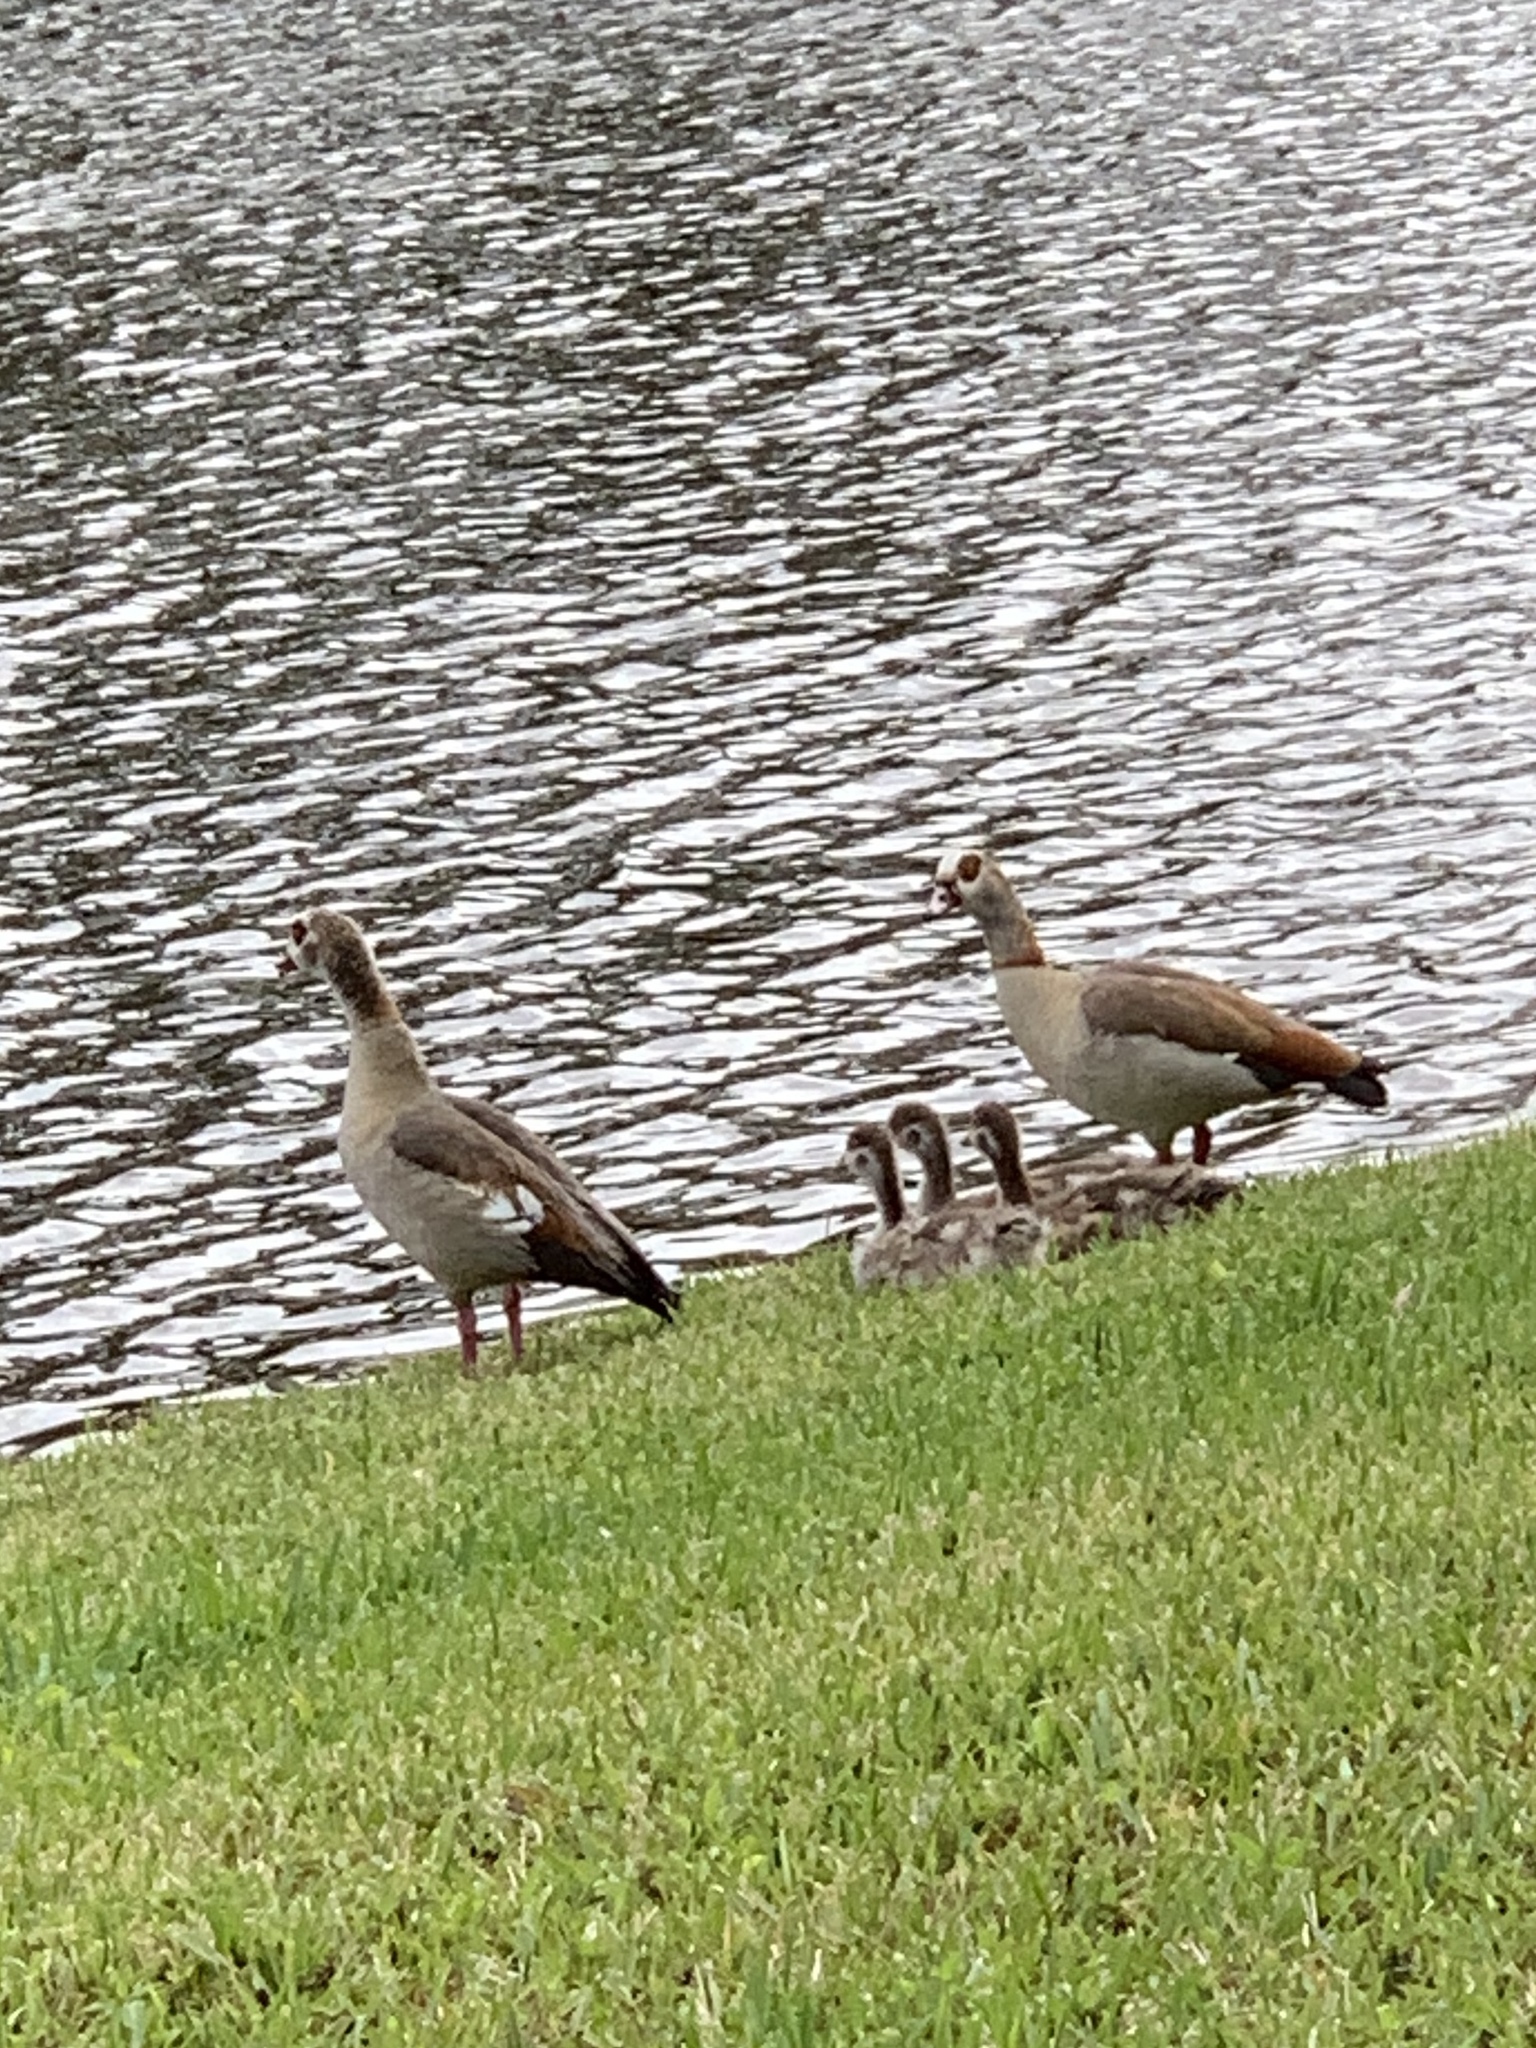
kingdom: Animalia
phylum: Chordata
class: Aves
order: Anseriformes
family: Anatidae
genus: Alopochen
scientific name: Alopochen aegyptiaca
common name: Egyptian goose
